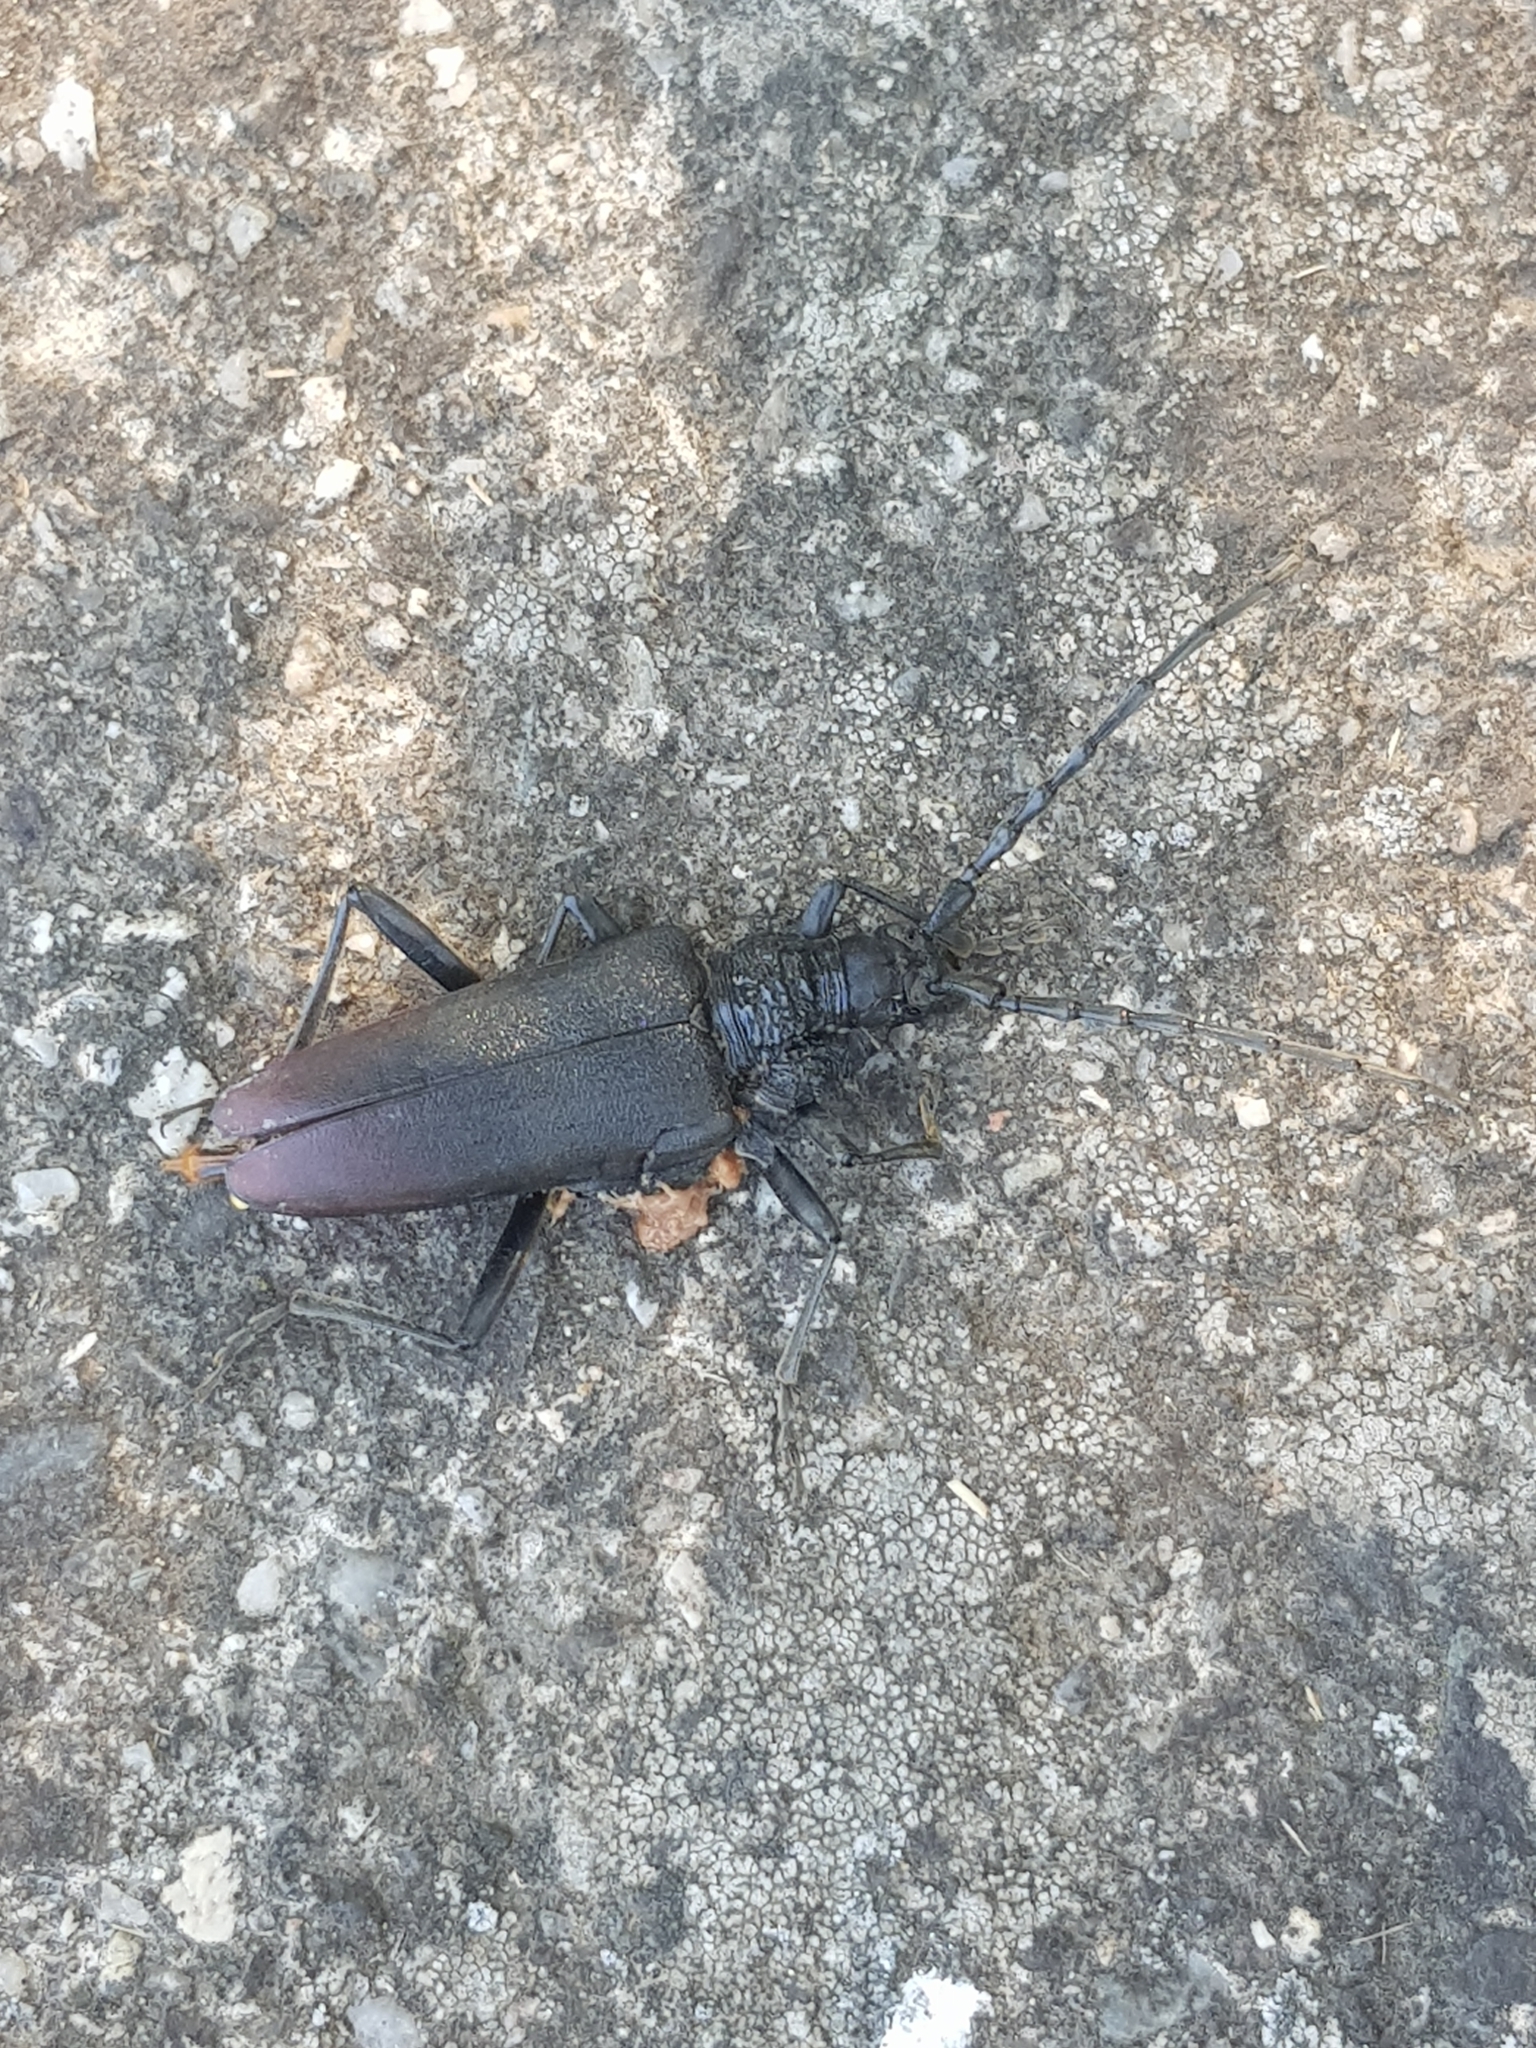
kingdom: Animalia
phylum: Arthropoda
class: Insecta
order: Coleoptera
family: Cerambycidae
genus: Cerambyx
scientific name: Cerambyx cerdo
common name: Cerambyx longicorn
